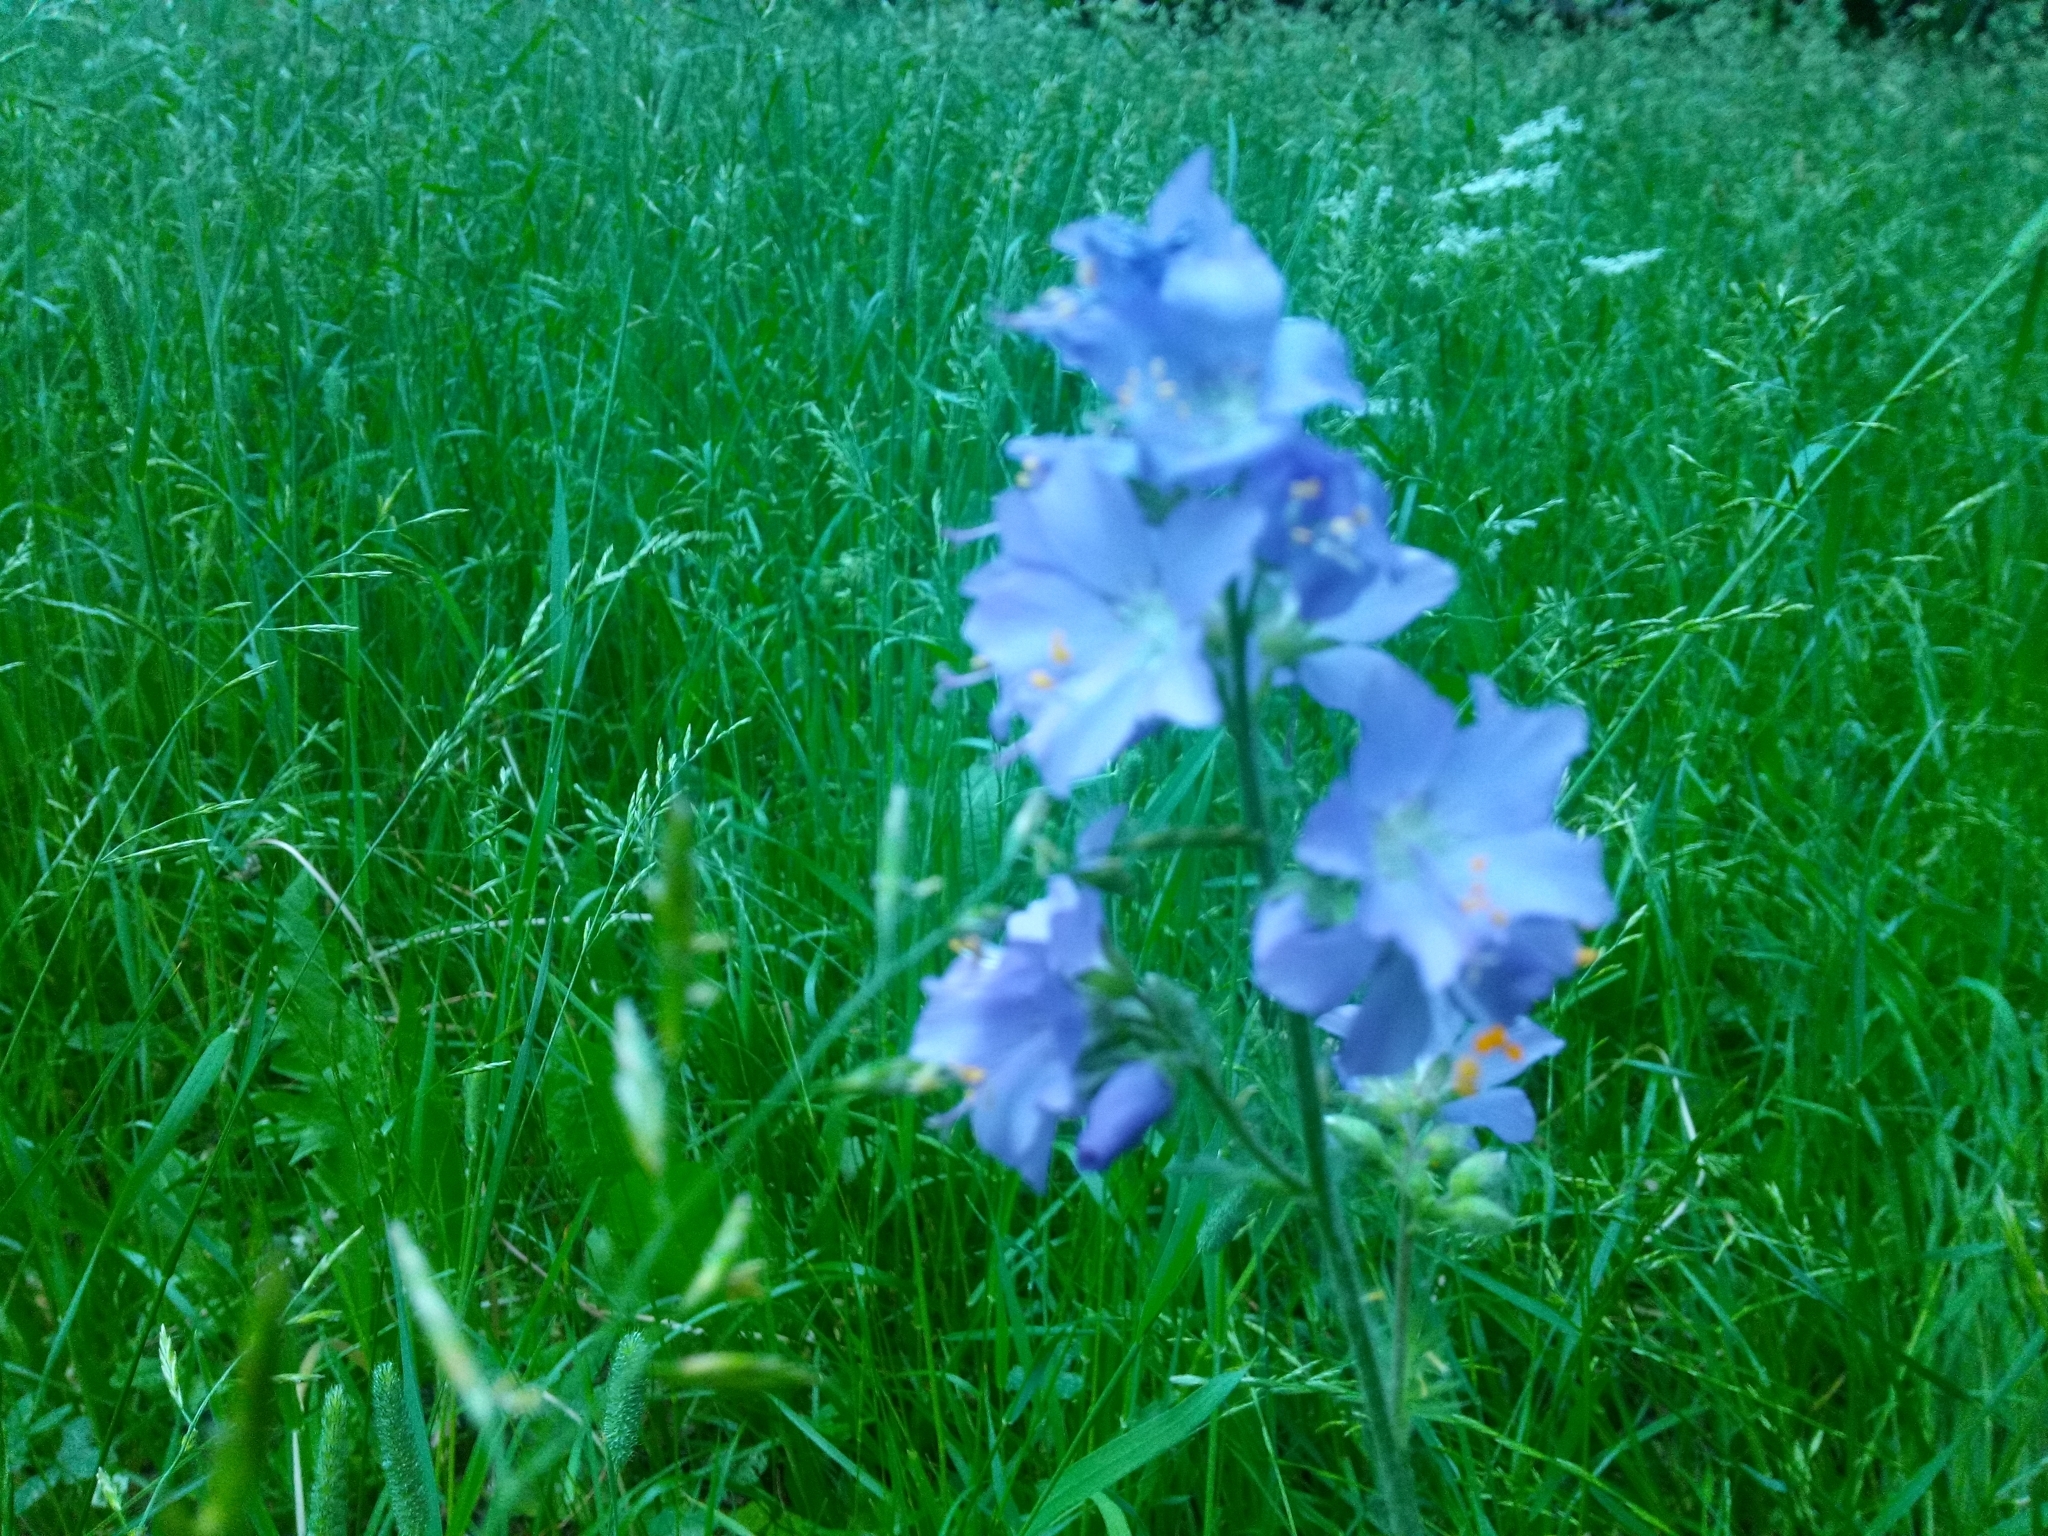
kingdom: Plantae
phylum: Tracheophyta
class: Magnoliopsida
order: Ericales
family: Polemoniaceae
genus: Polemonium
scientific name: Polemonium caeruleum
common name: Jacob's-ladder
